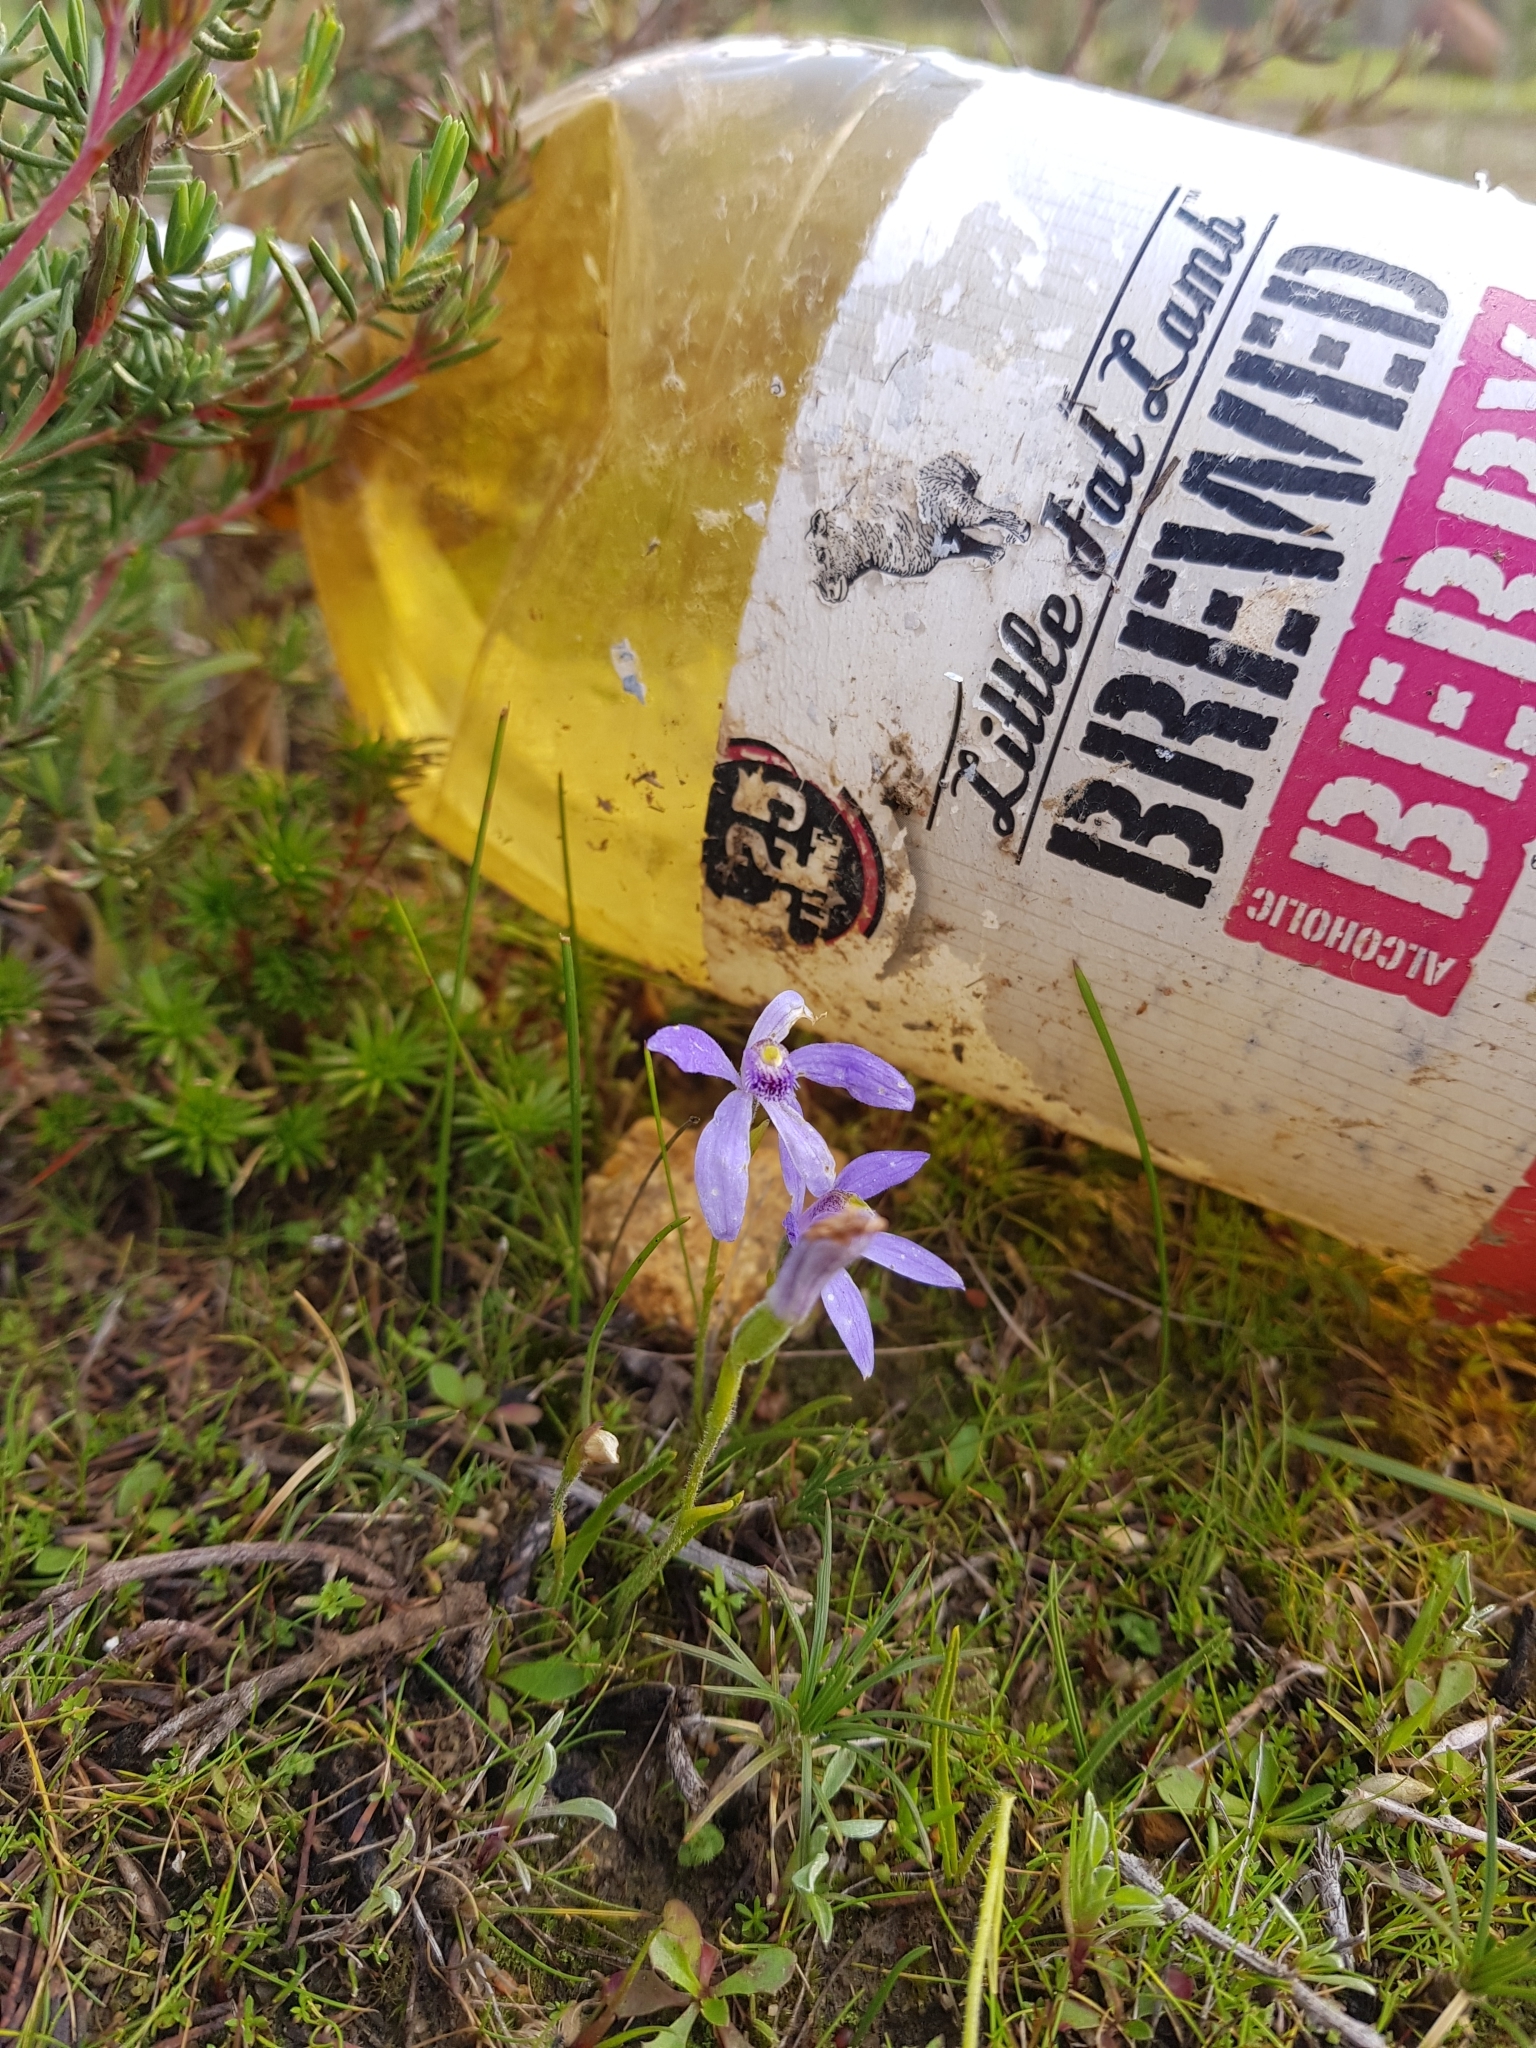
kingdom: Plantae
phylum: Tracheophyta
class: Liliopsida
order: Asparagales
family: Orchidaceae
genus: Pheladenia
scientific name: Pheladenia deformis
